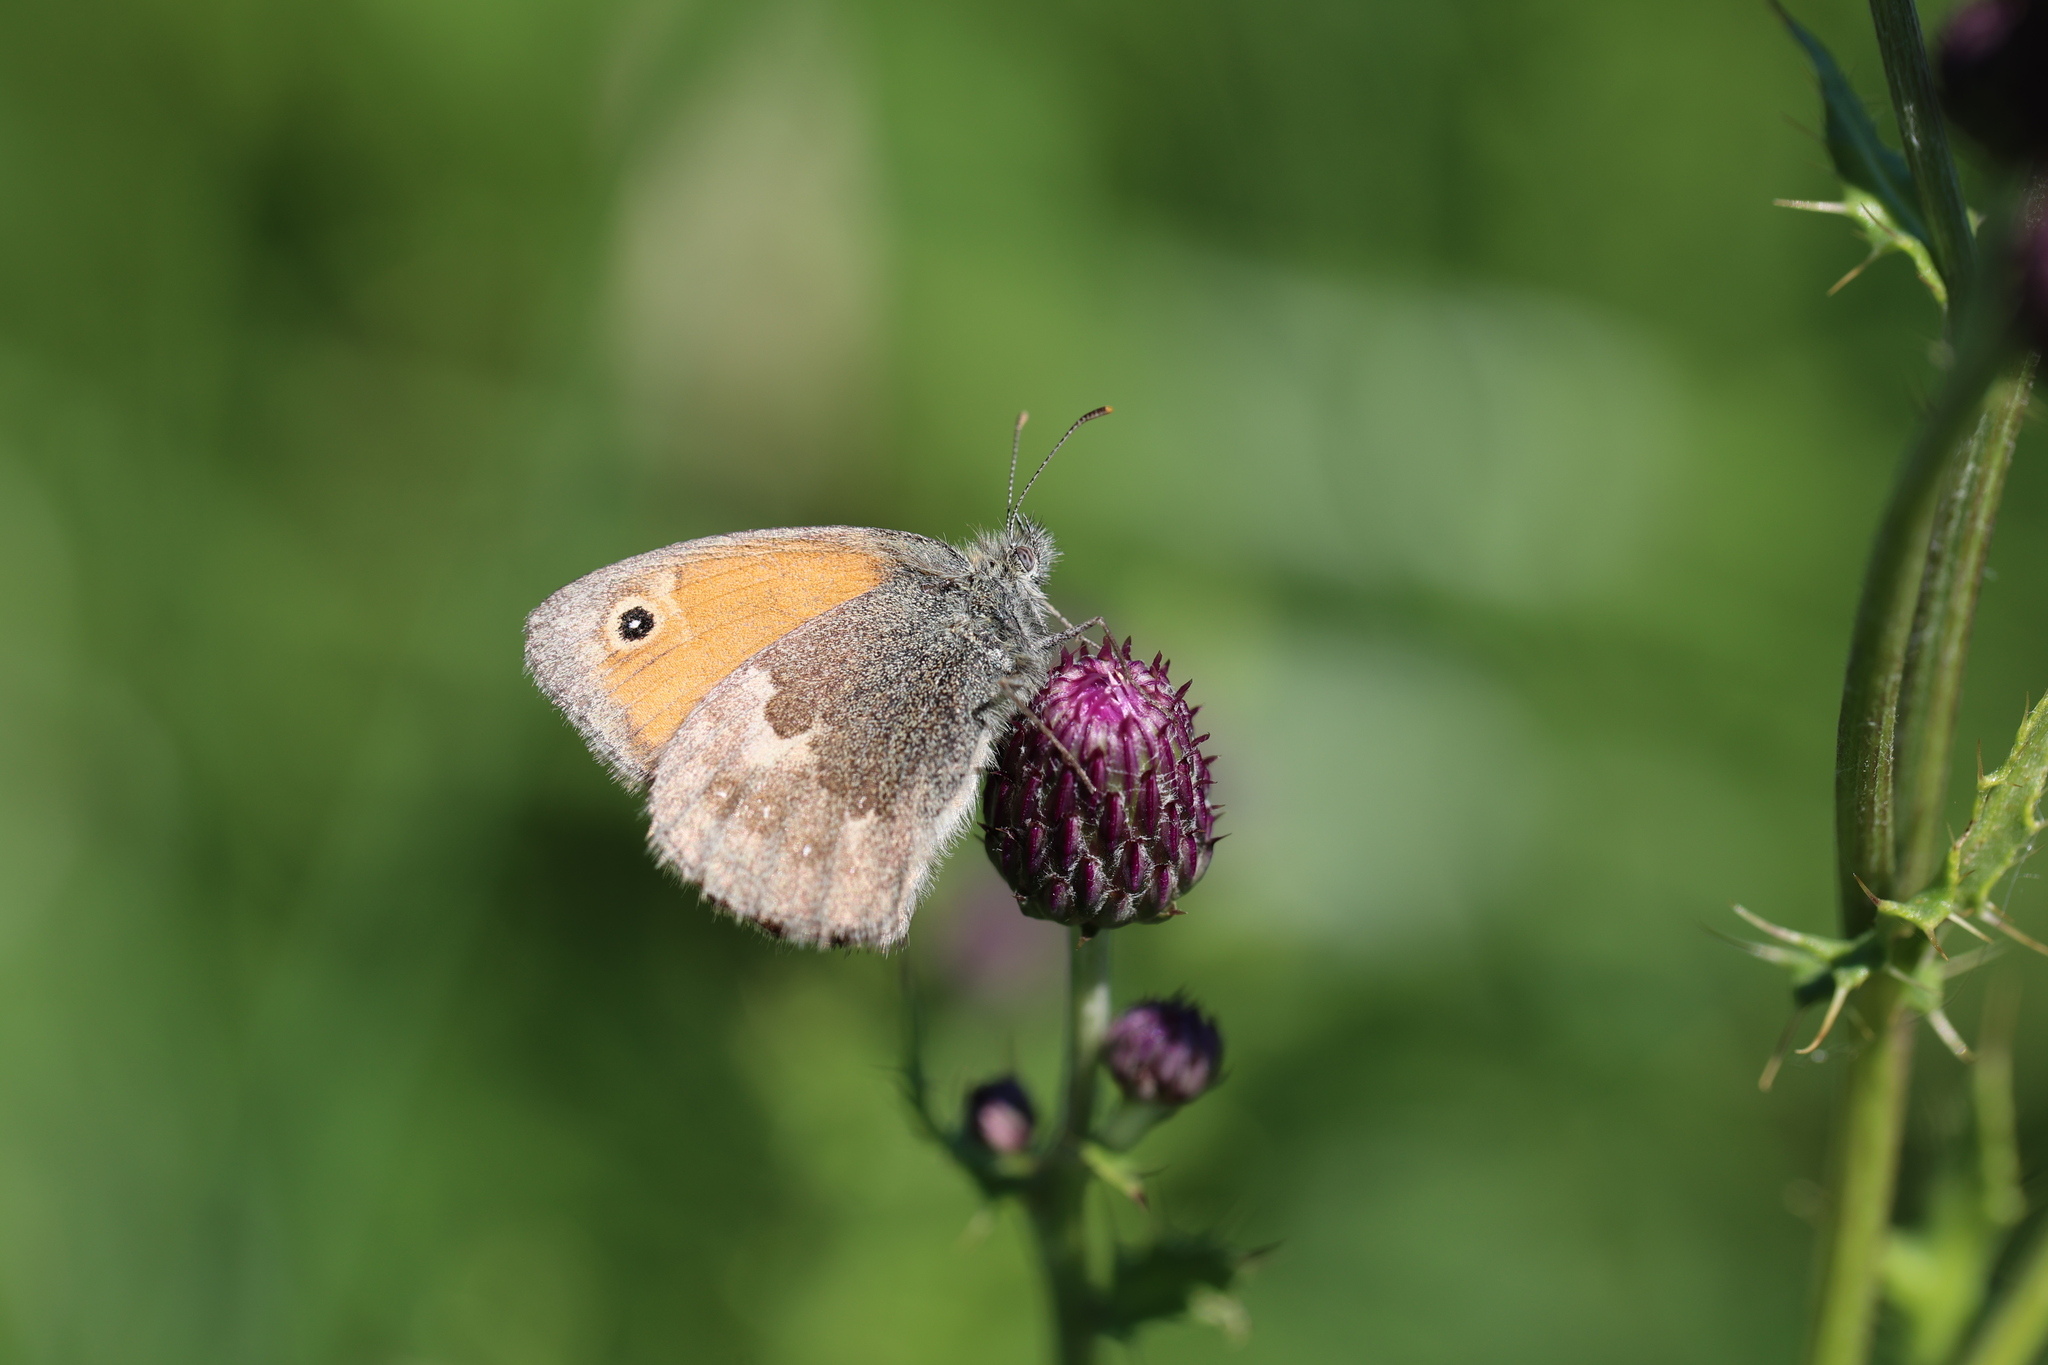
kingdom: Animalia
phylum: Arthropoda
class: Insecta
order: Lepidoptera
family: Nymphalidae
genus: Coenonympha
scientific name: Coenonympha pamphilus
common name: Small heath
